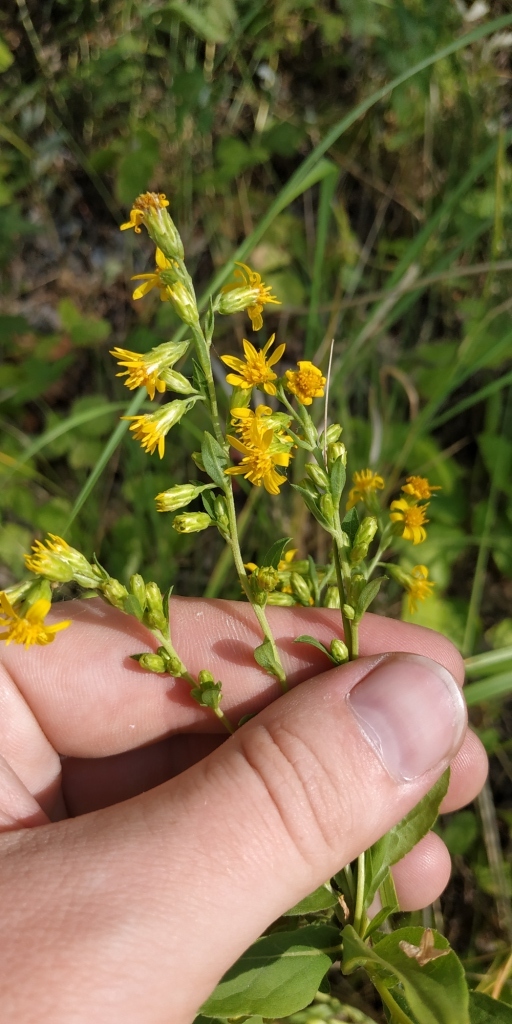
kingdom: Plantae
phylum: Tracheophyta
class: Magnoliopsida
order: Asterales
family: Asteraceae
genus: Solidago
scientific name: Solidago virgaurea
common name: Goldenrod
